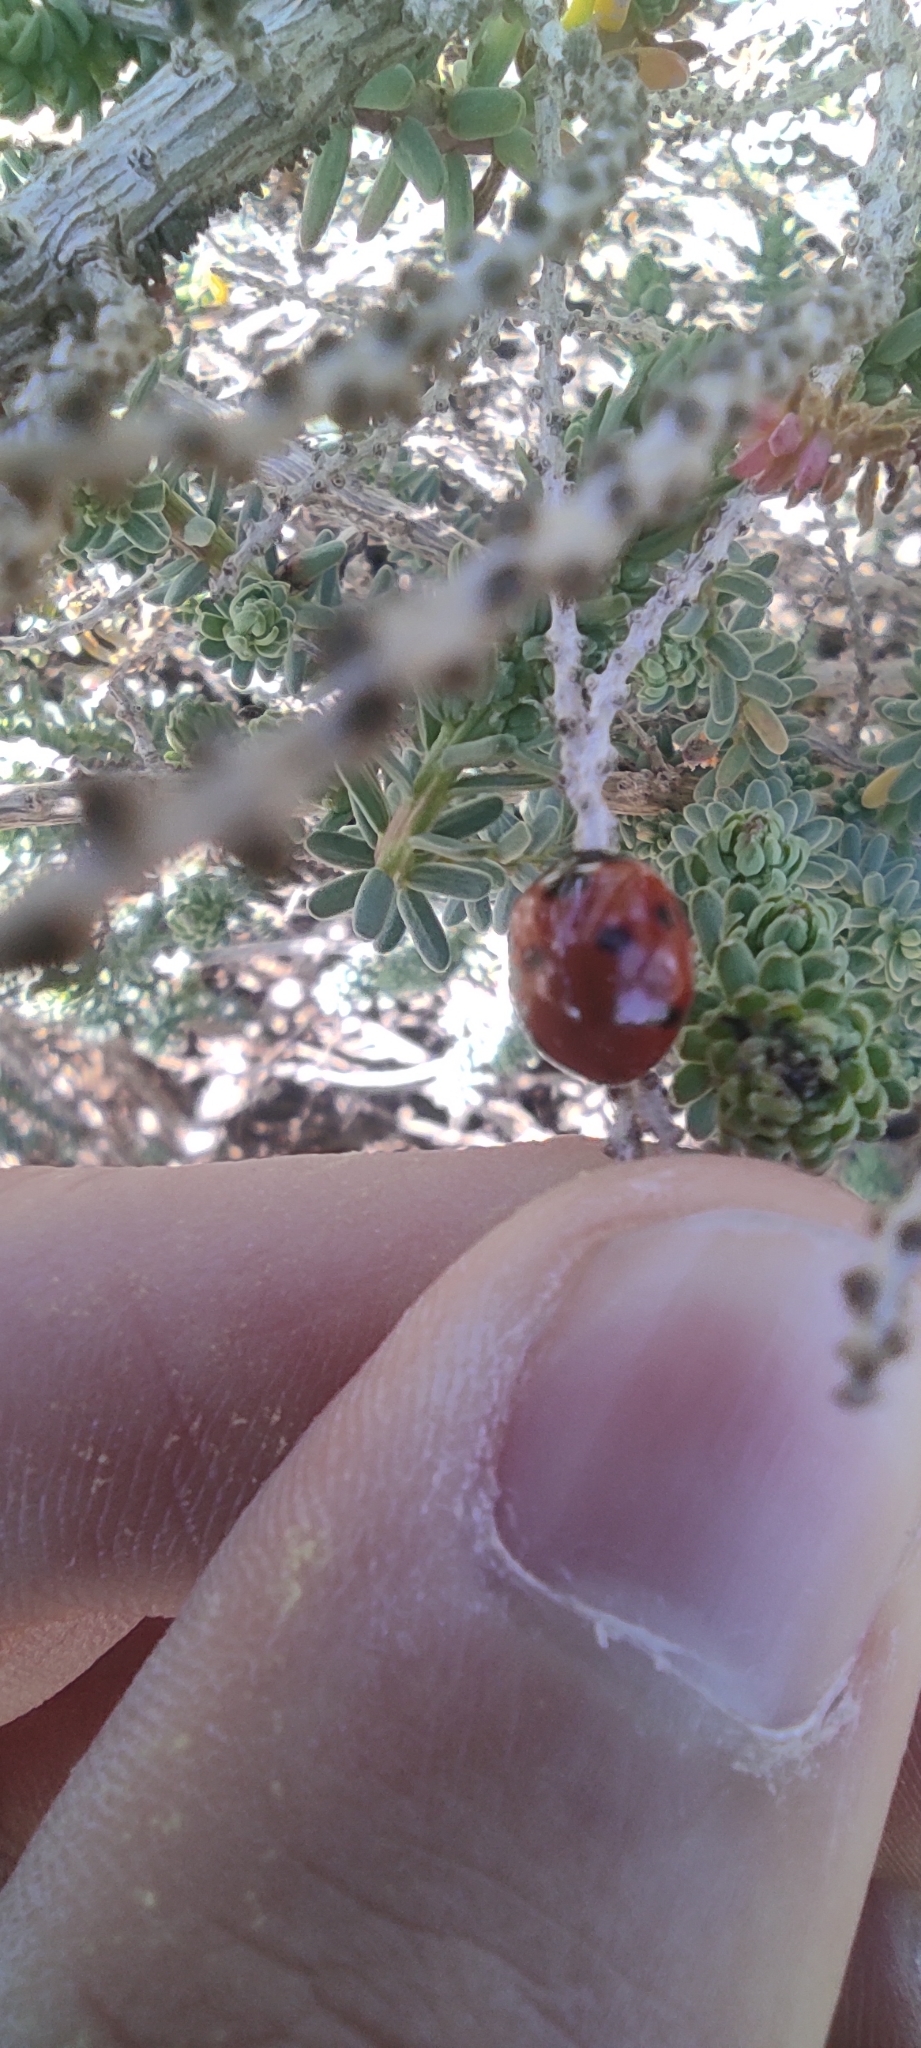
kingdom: Animalia
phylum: Arthropoda
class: Insecta
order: Coleoptera
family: Coccinellidae
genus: Coccinella
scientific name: Coccinella septempunctata
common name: Sevenspotted lady beetle
